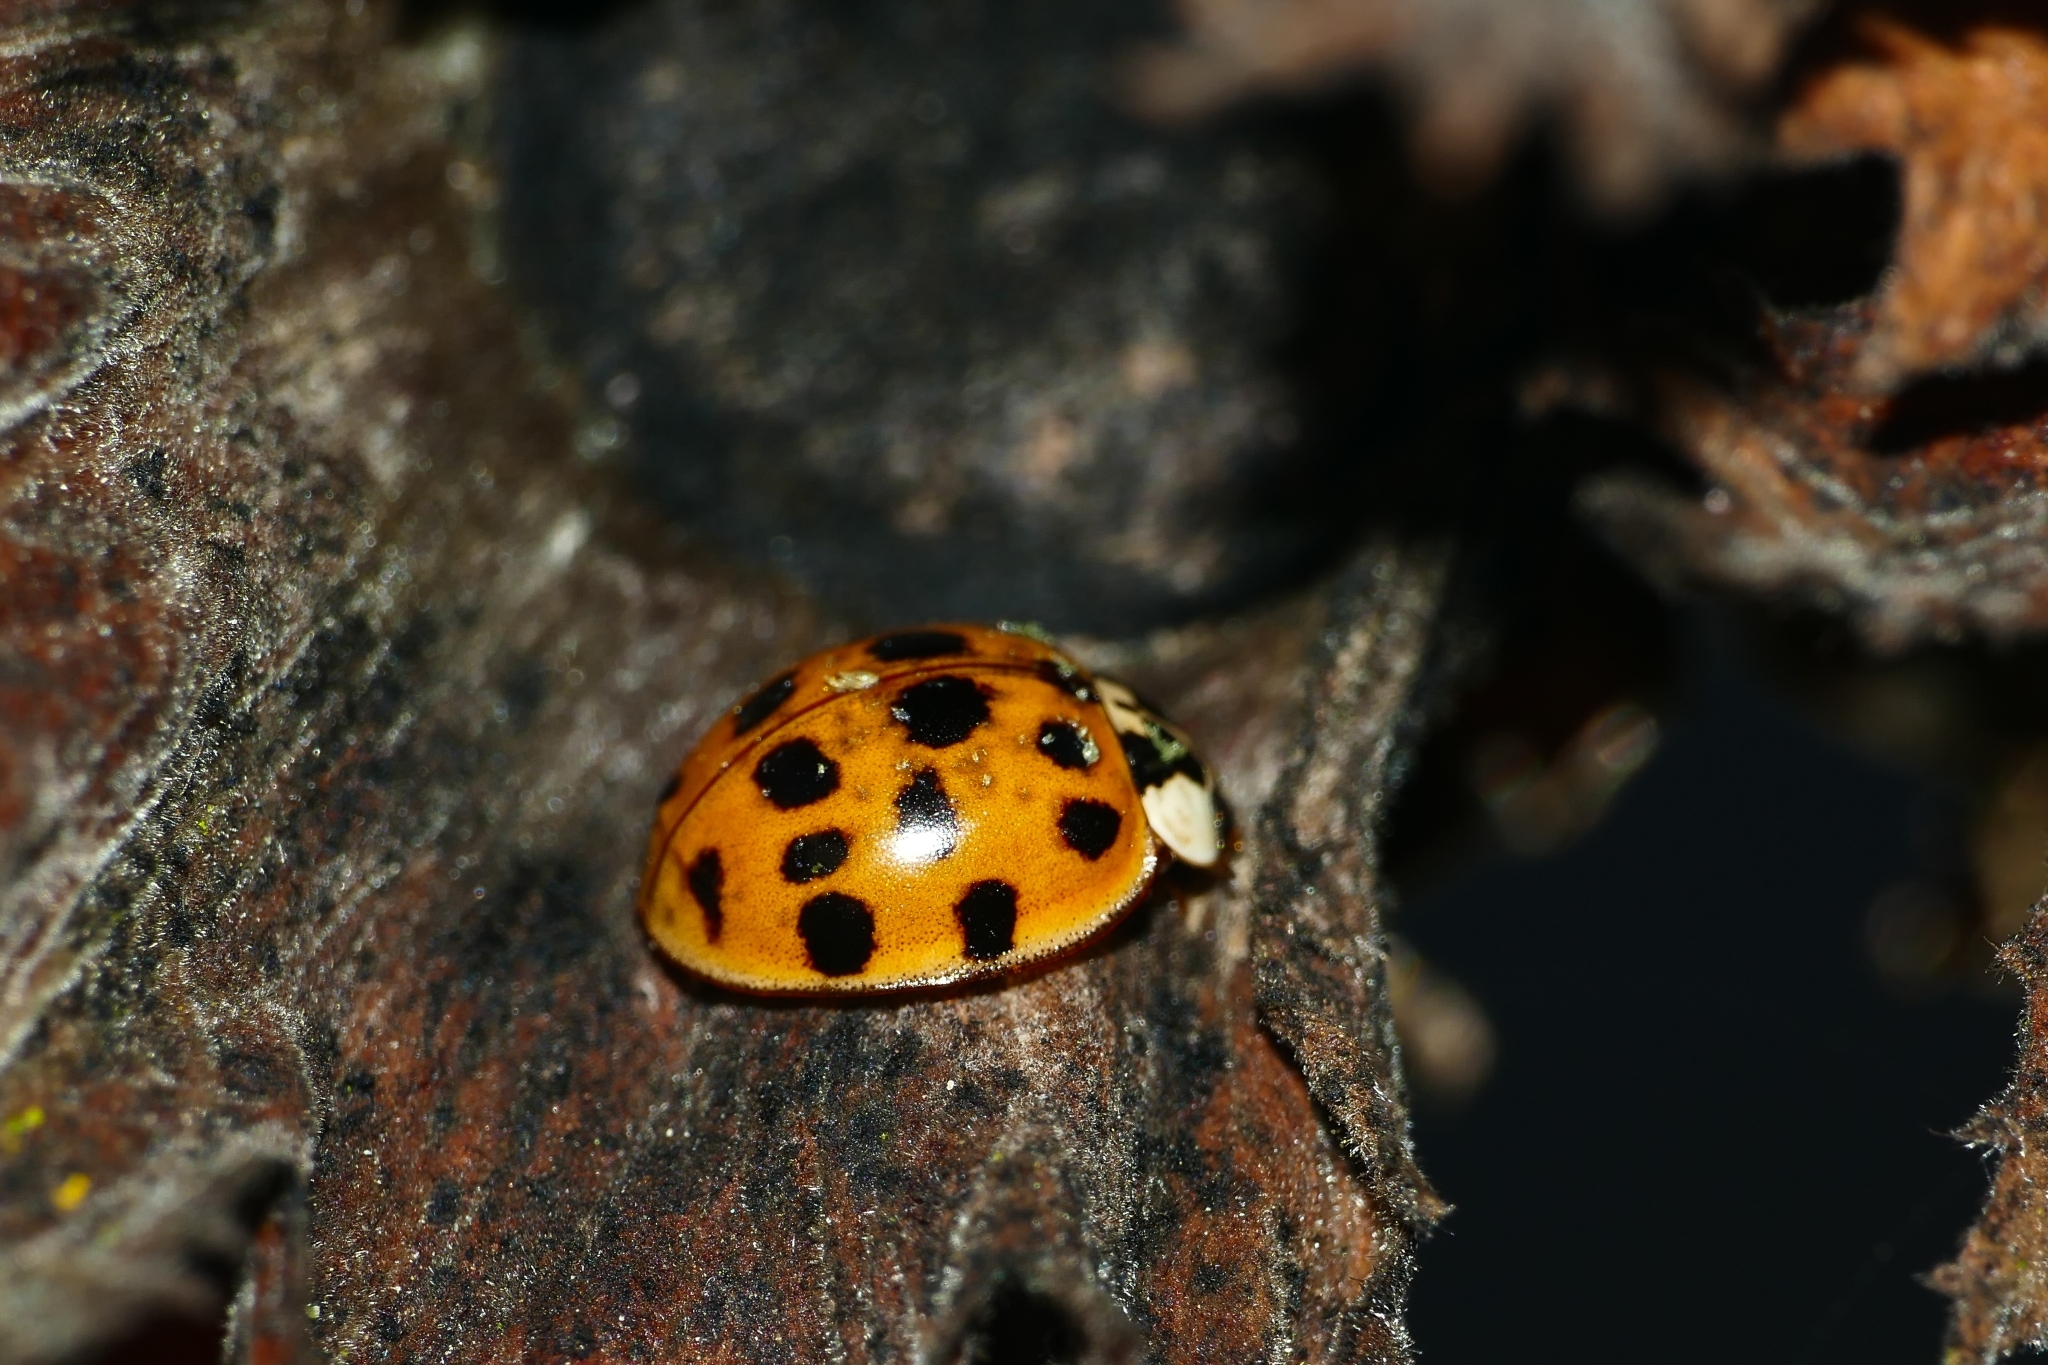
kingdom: Animalia
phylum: Arthropoda
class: Insecta
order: Coleoptera
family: Coccinellidae
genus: Harmonia
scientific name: Harmonia axyridis
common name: Harlequin ladybird
